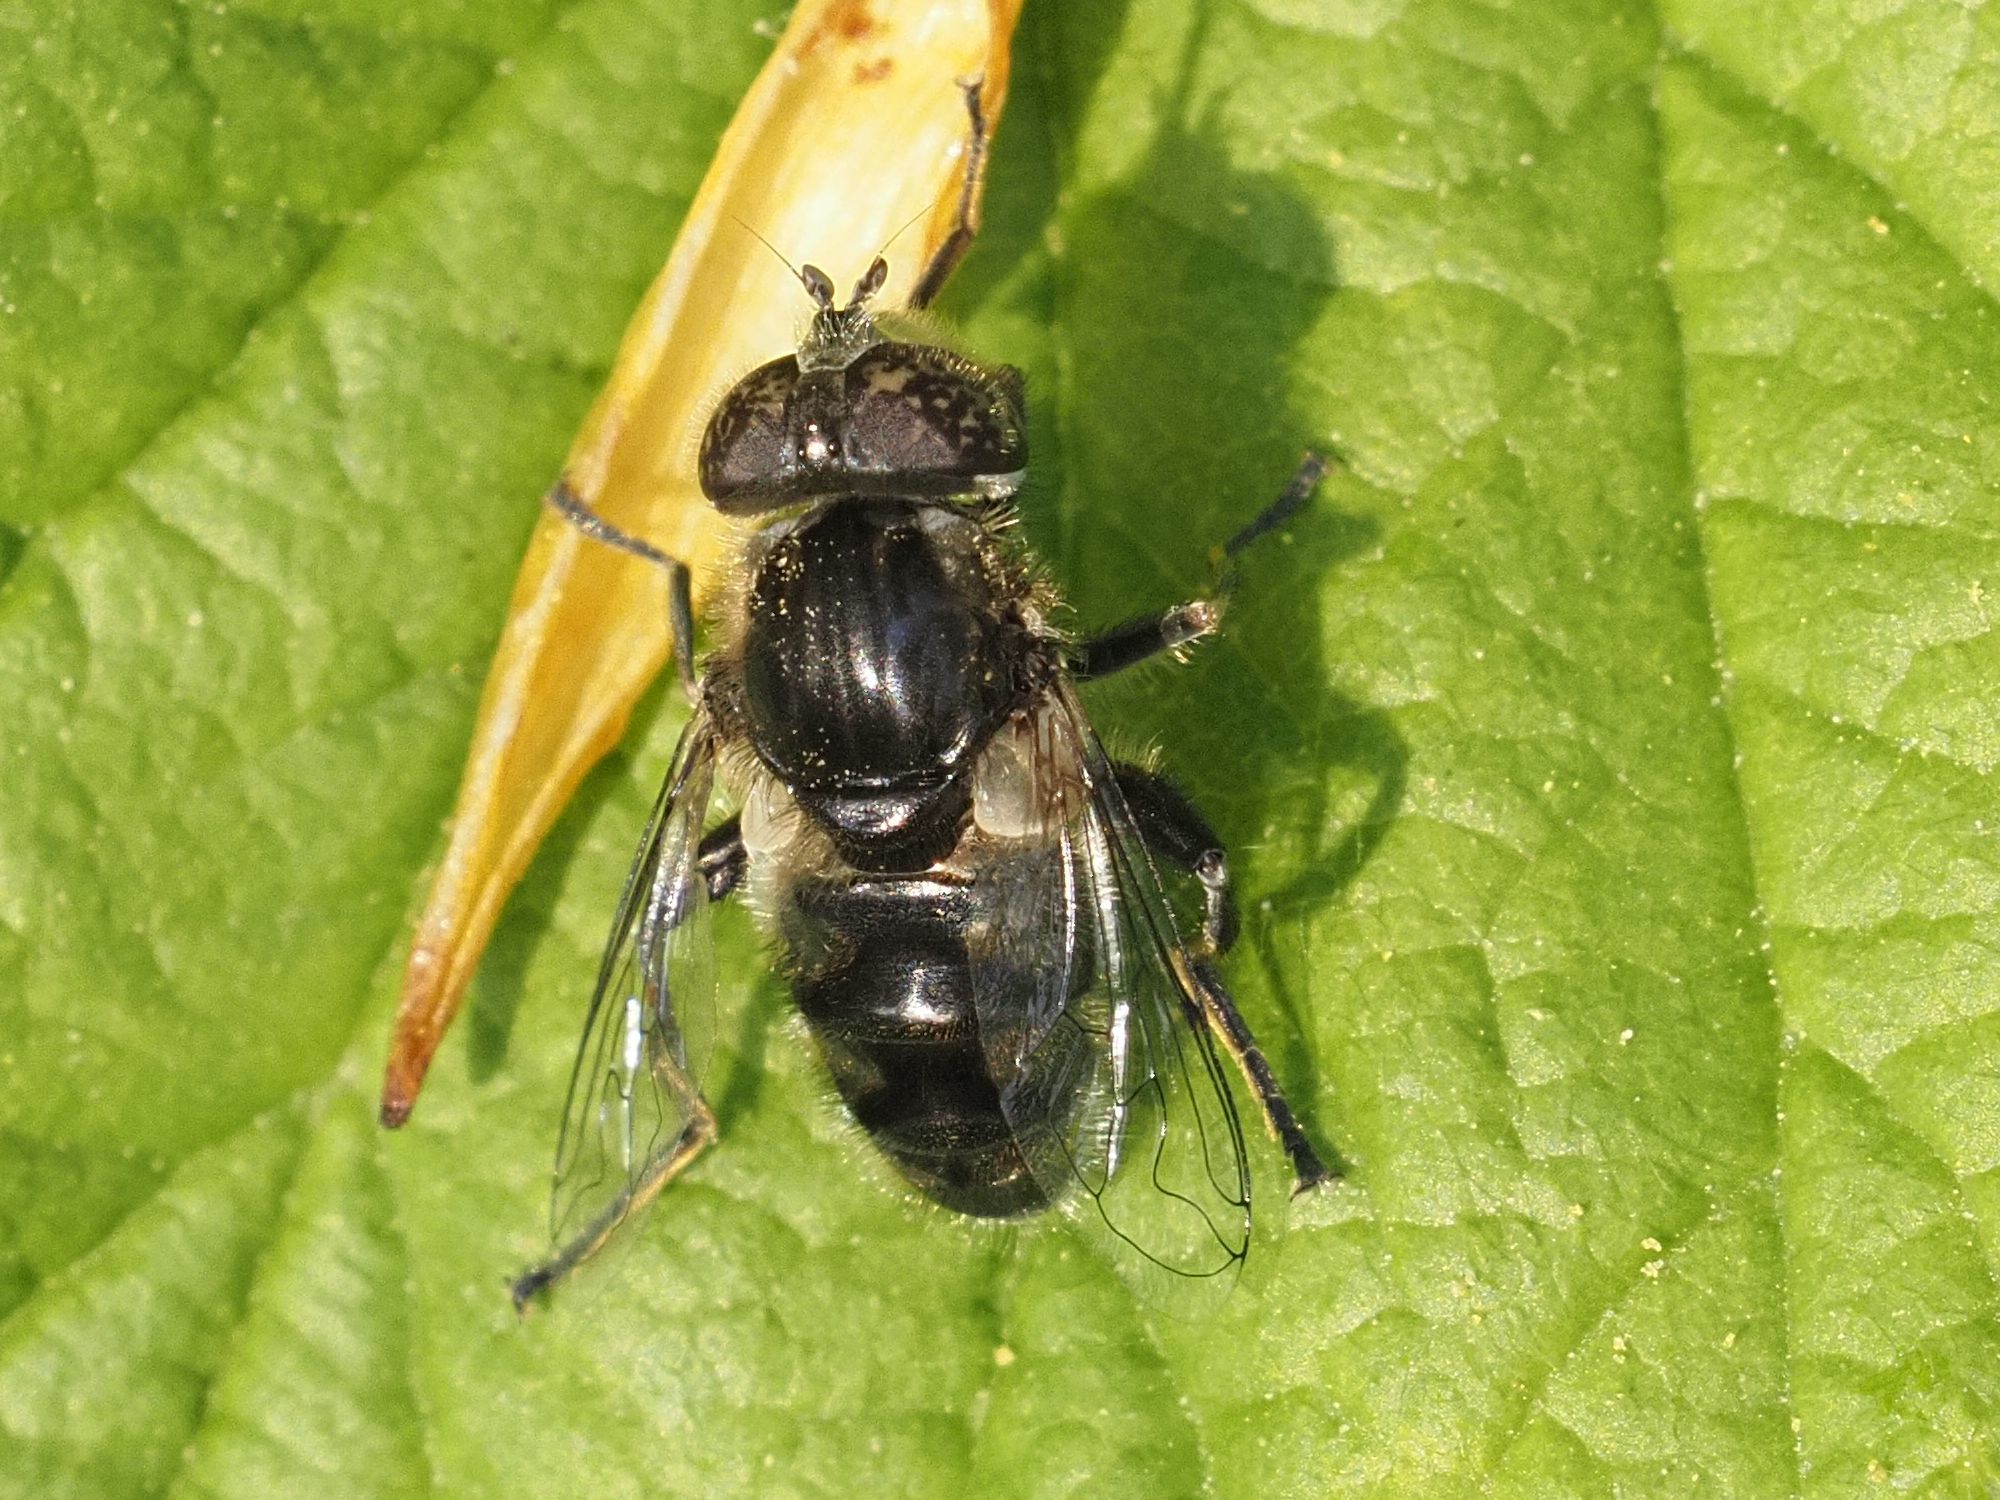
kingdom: Animalia
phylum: Arthropoda
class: Insecta
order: Diptera
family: Syrphidae
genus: Eristalinus
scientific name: Eristalinus sepulchralis
